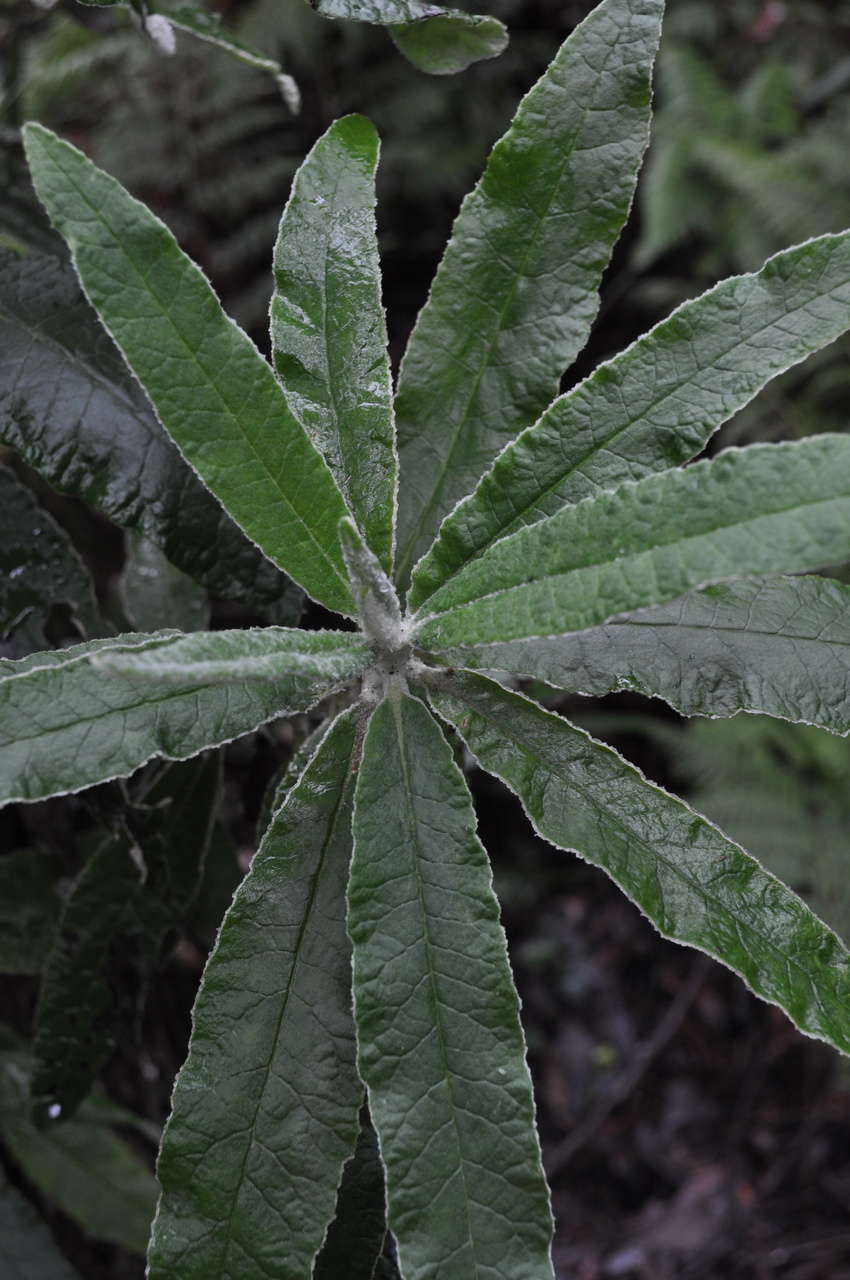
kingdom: Plantae
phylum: Tracheophyta
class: Magnoliopsida
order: Asterales
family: Asteraceae
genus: Bedfordia
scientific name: Bedfordia arborescens
